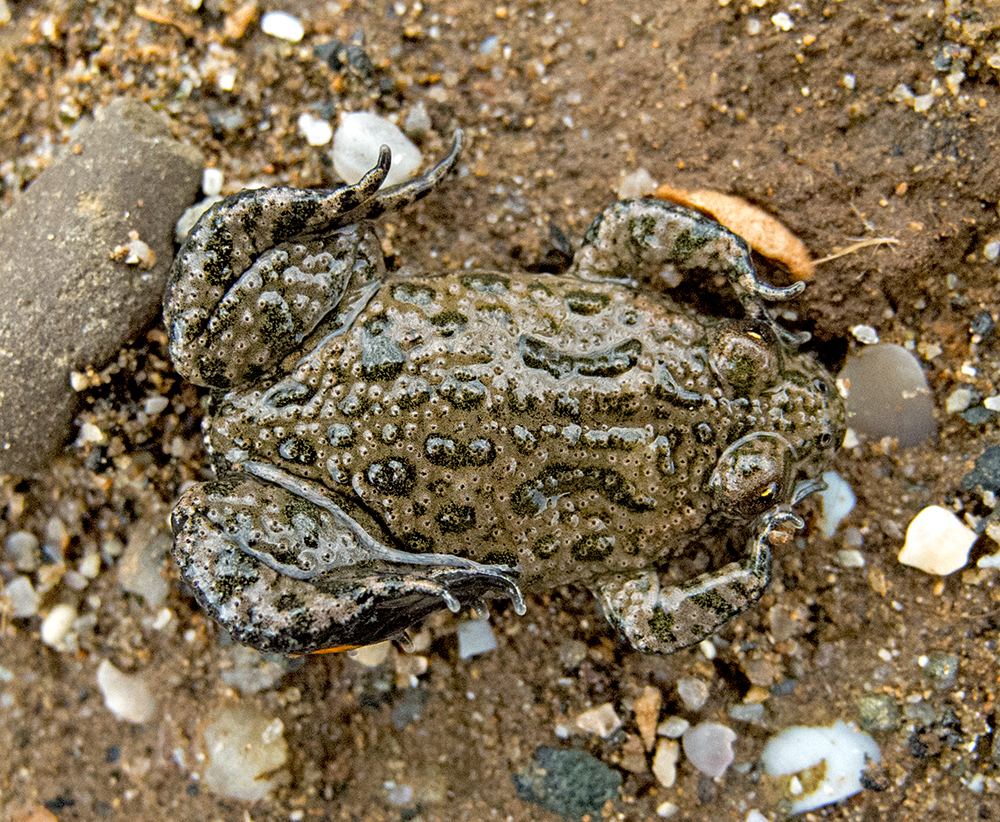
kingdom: Animalia
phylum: Chordata
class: Amphibia
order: Anura
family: Bombinatoridae
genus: Bombina
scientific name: Bombina bombina
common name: Fire-bellied toad
